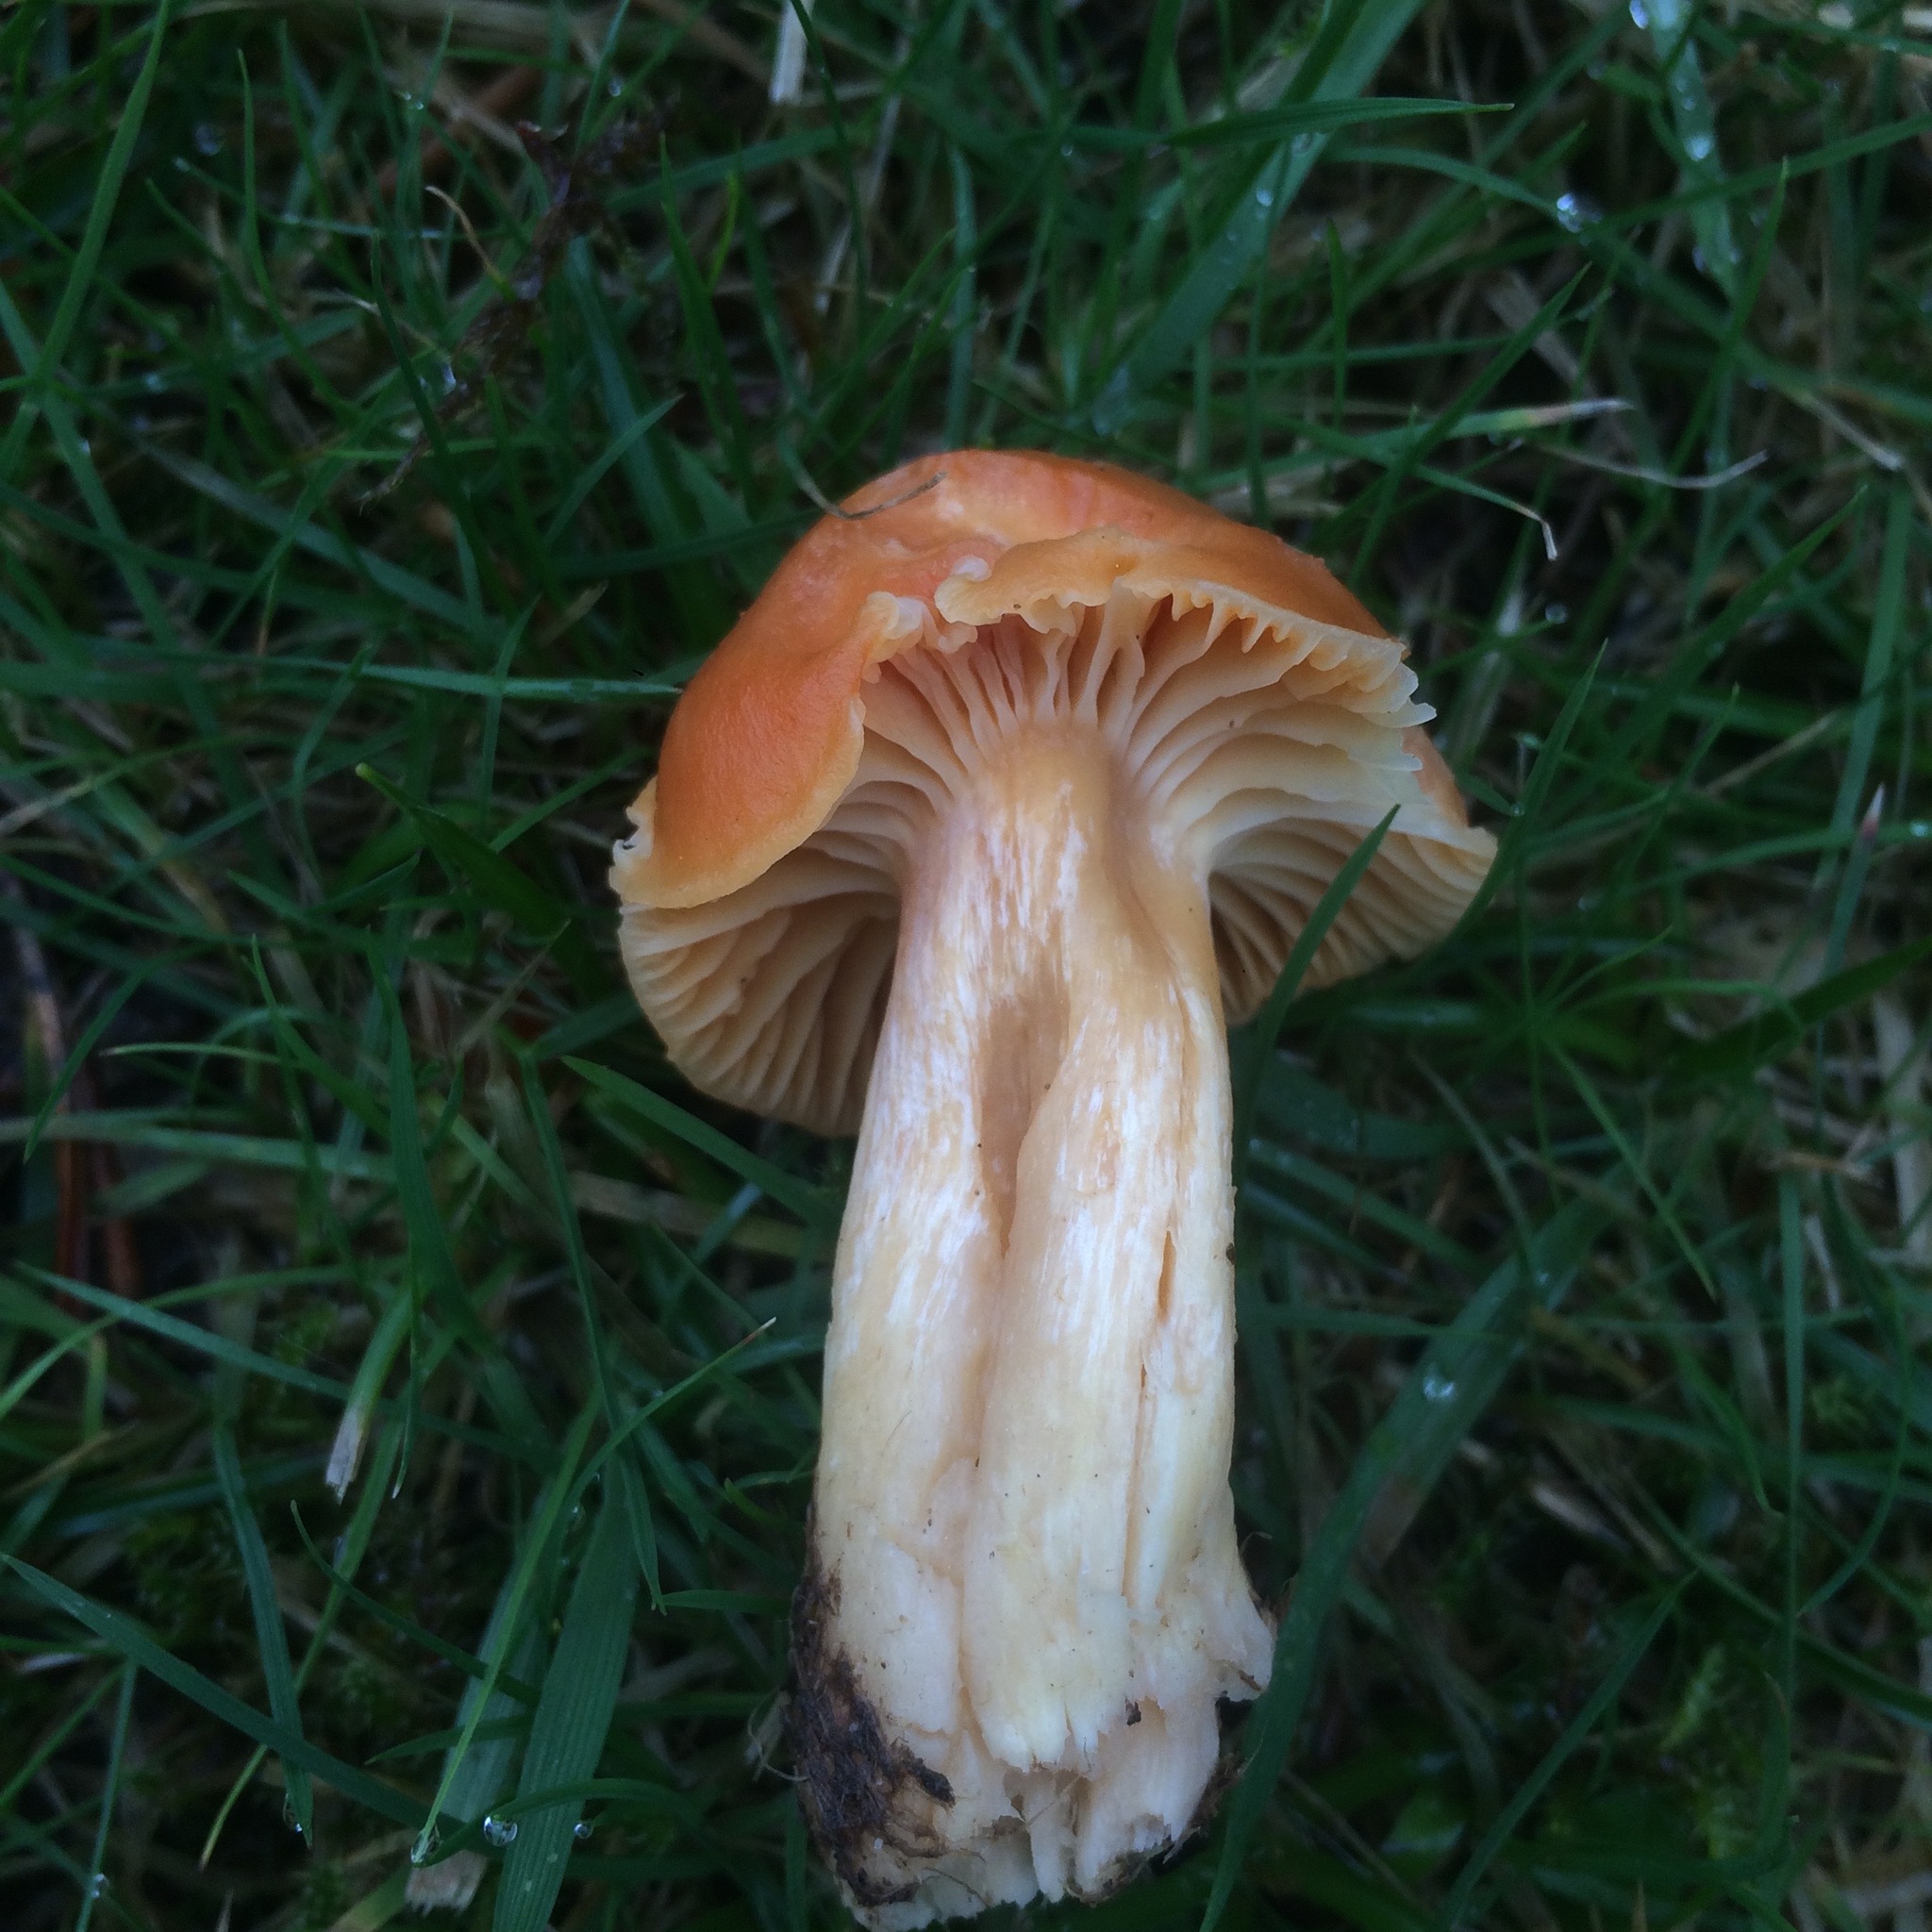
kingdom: Fungi
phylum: Basidiomycota
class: Agaricomycetes
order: Agaricales
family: Hygrophoraceae
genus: Cuphophyllus
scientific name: Cuphophyllus pratensis
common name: Meadow waxcap
